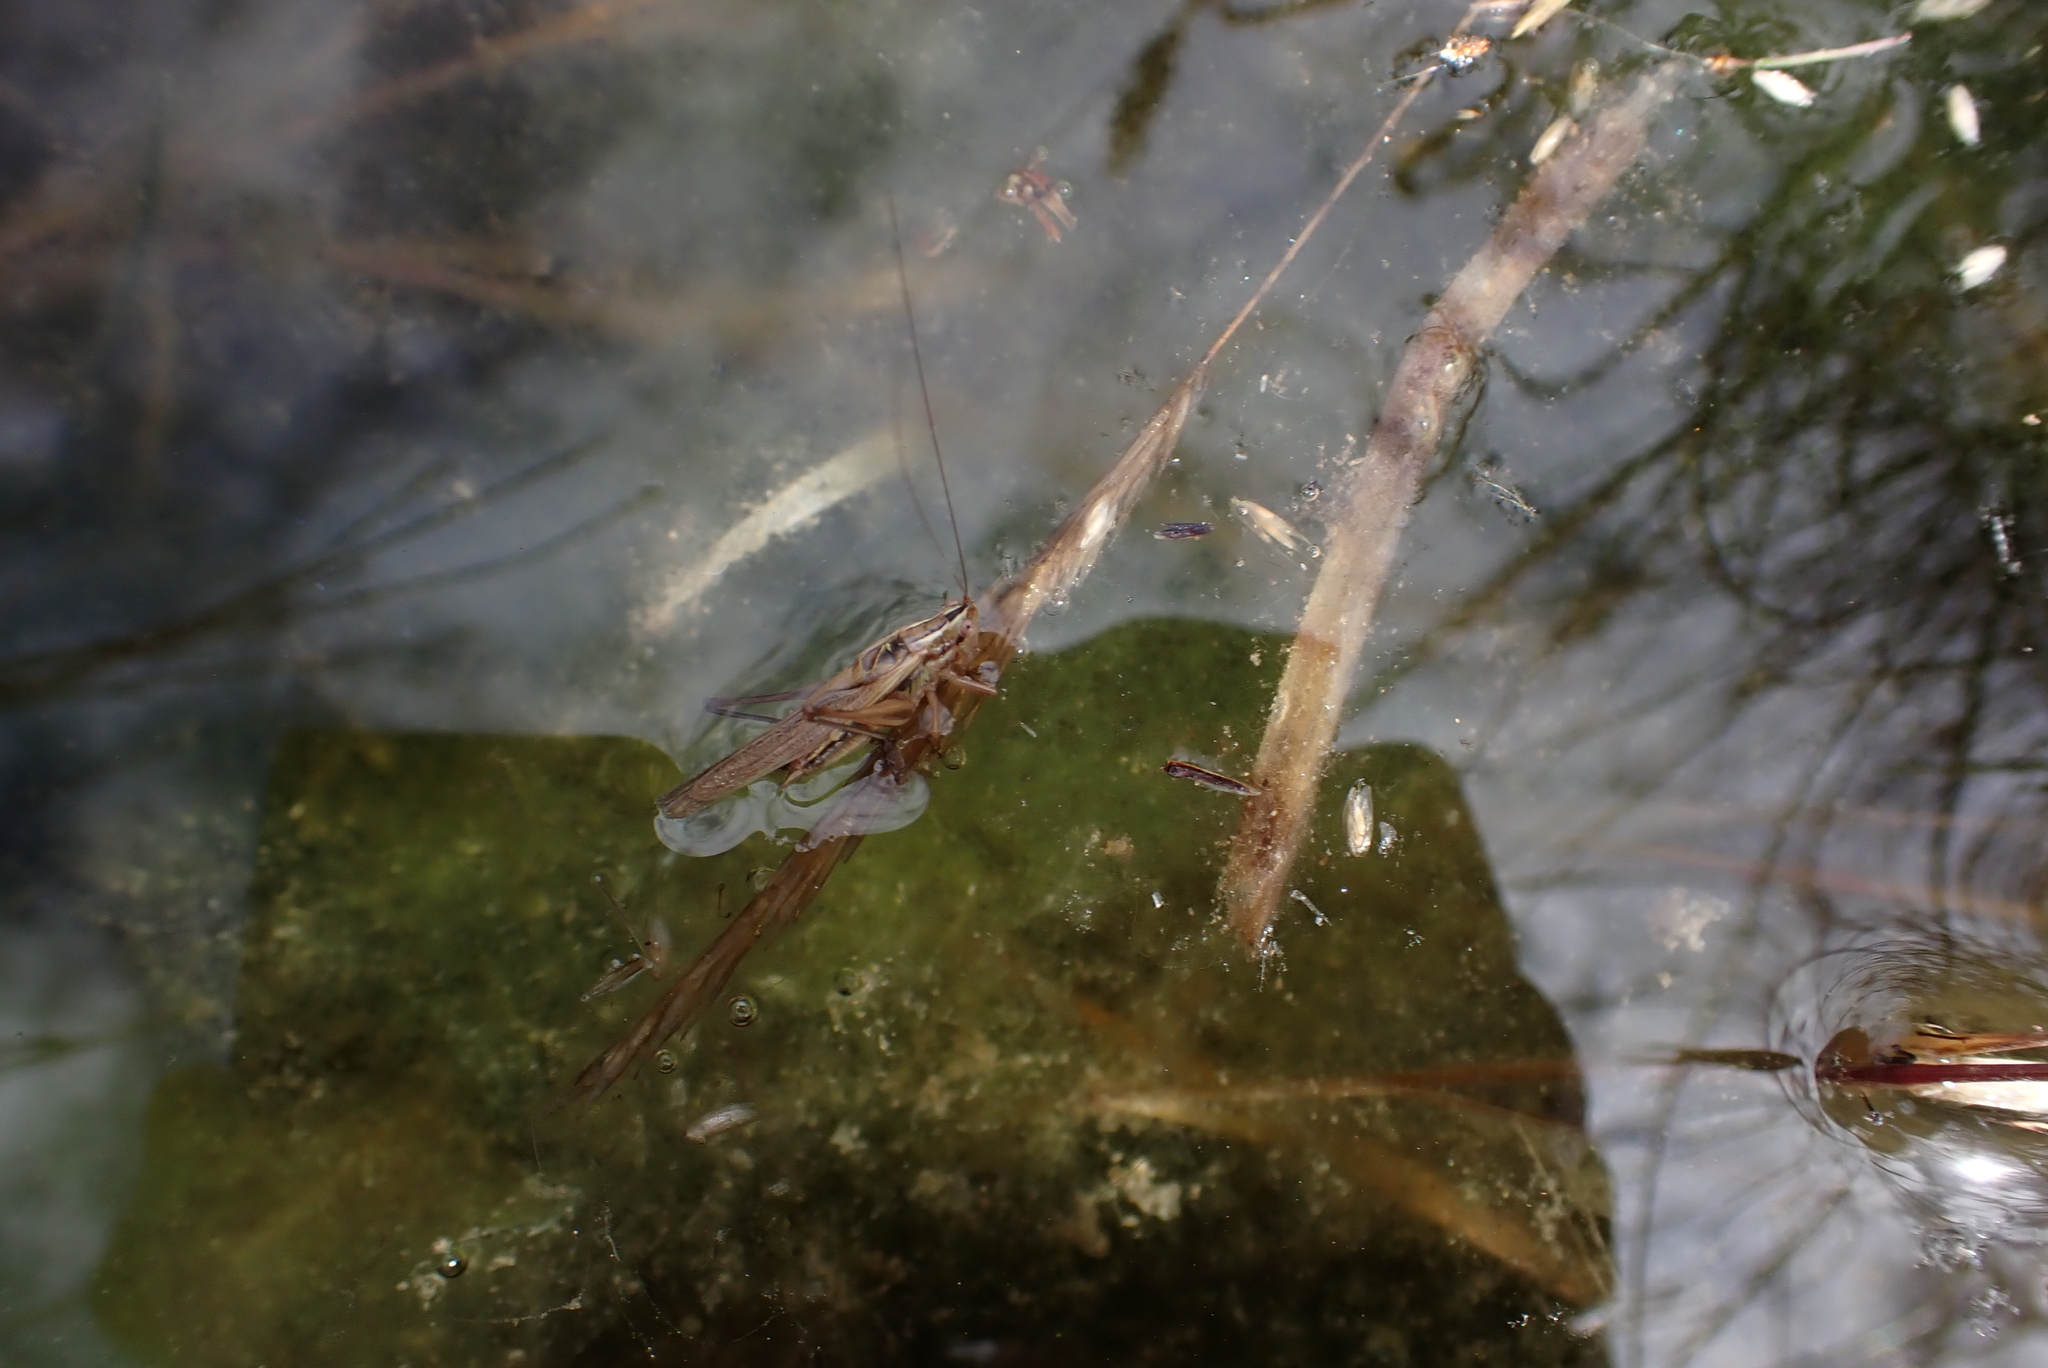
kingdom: Animalia
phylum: Arthropoda
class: Insecta
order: Orthoptera
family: Tettigoniidae
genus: Conocephalus
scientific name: Conocephalus bilineatus
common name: Small meadow katydid
